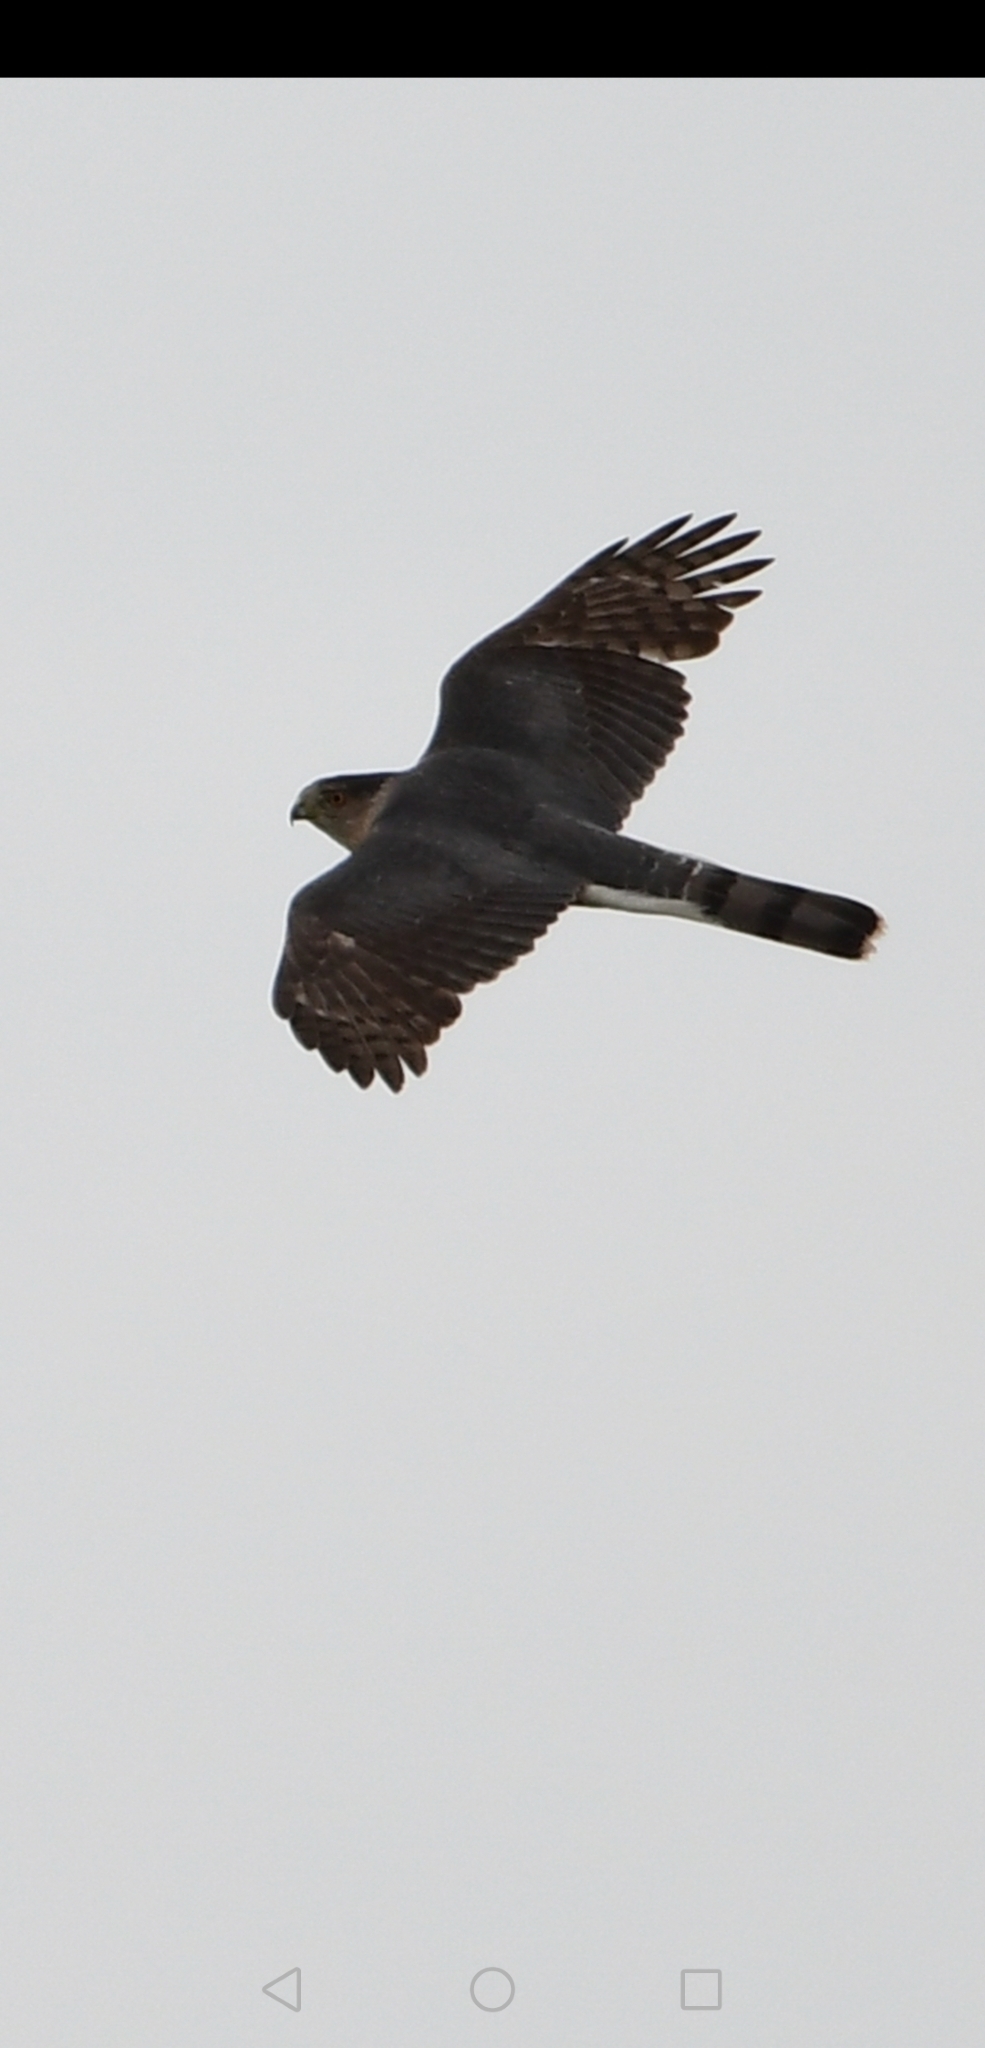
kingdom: Animalia
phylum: Chordata
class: Aves
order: Accipitriformes
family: Accipitridae
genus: Accipiter
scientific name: Accipiter cooperii
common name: Cooper's hawk
